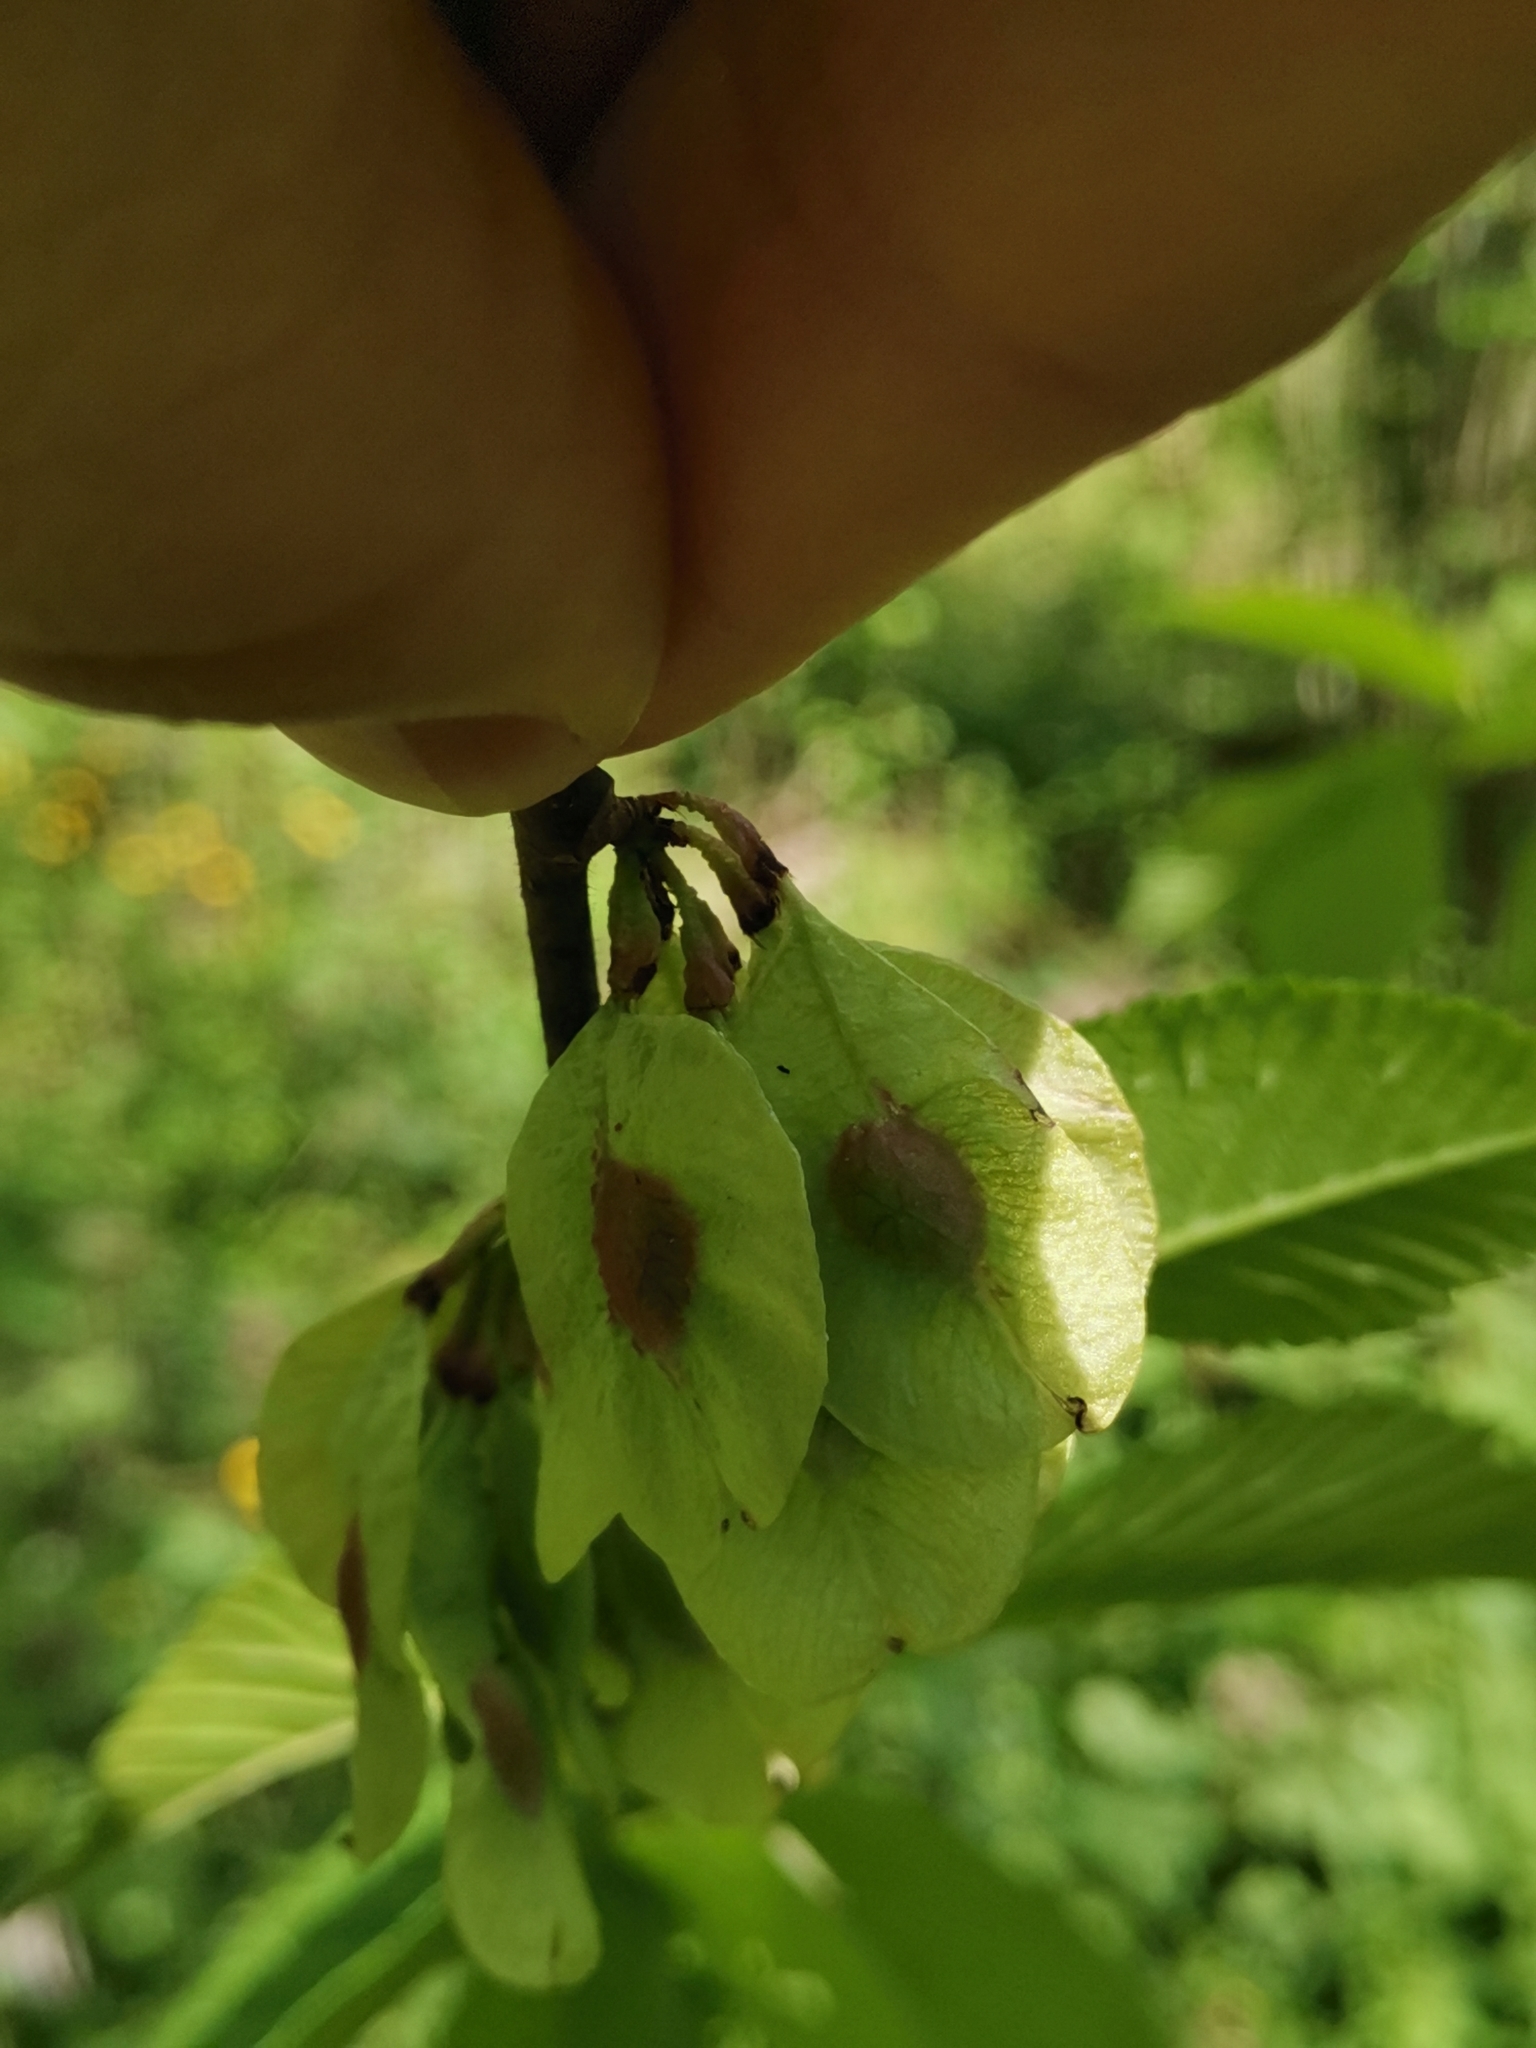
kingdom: Plantae
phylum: Tracheophyta
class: Magnoliopsida
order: Rosales
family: Ulmaceae
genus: Ulmus
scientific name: Ulmus glabra
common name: Wych elm
